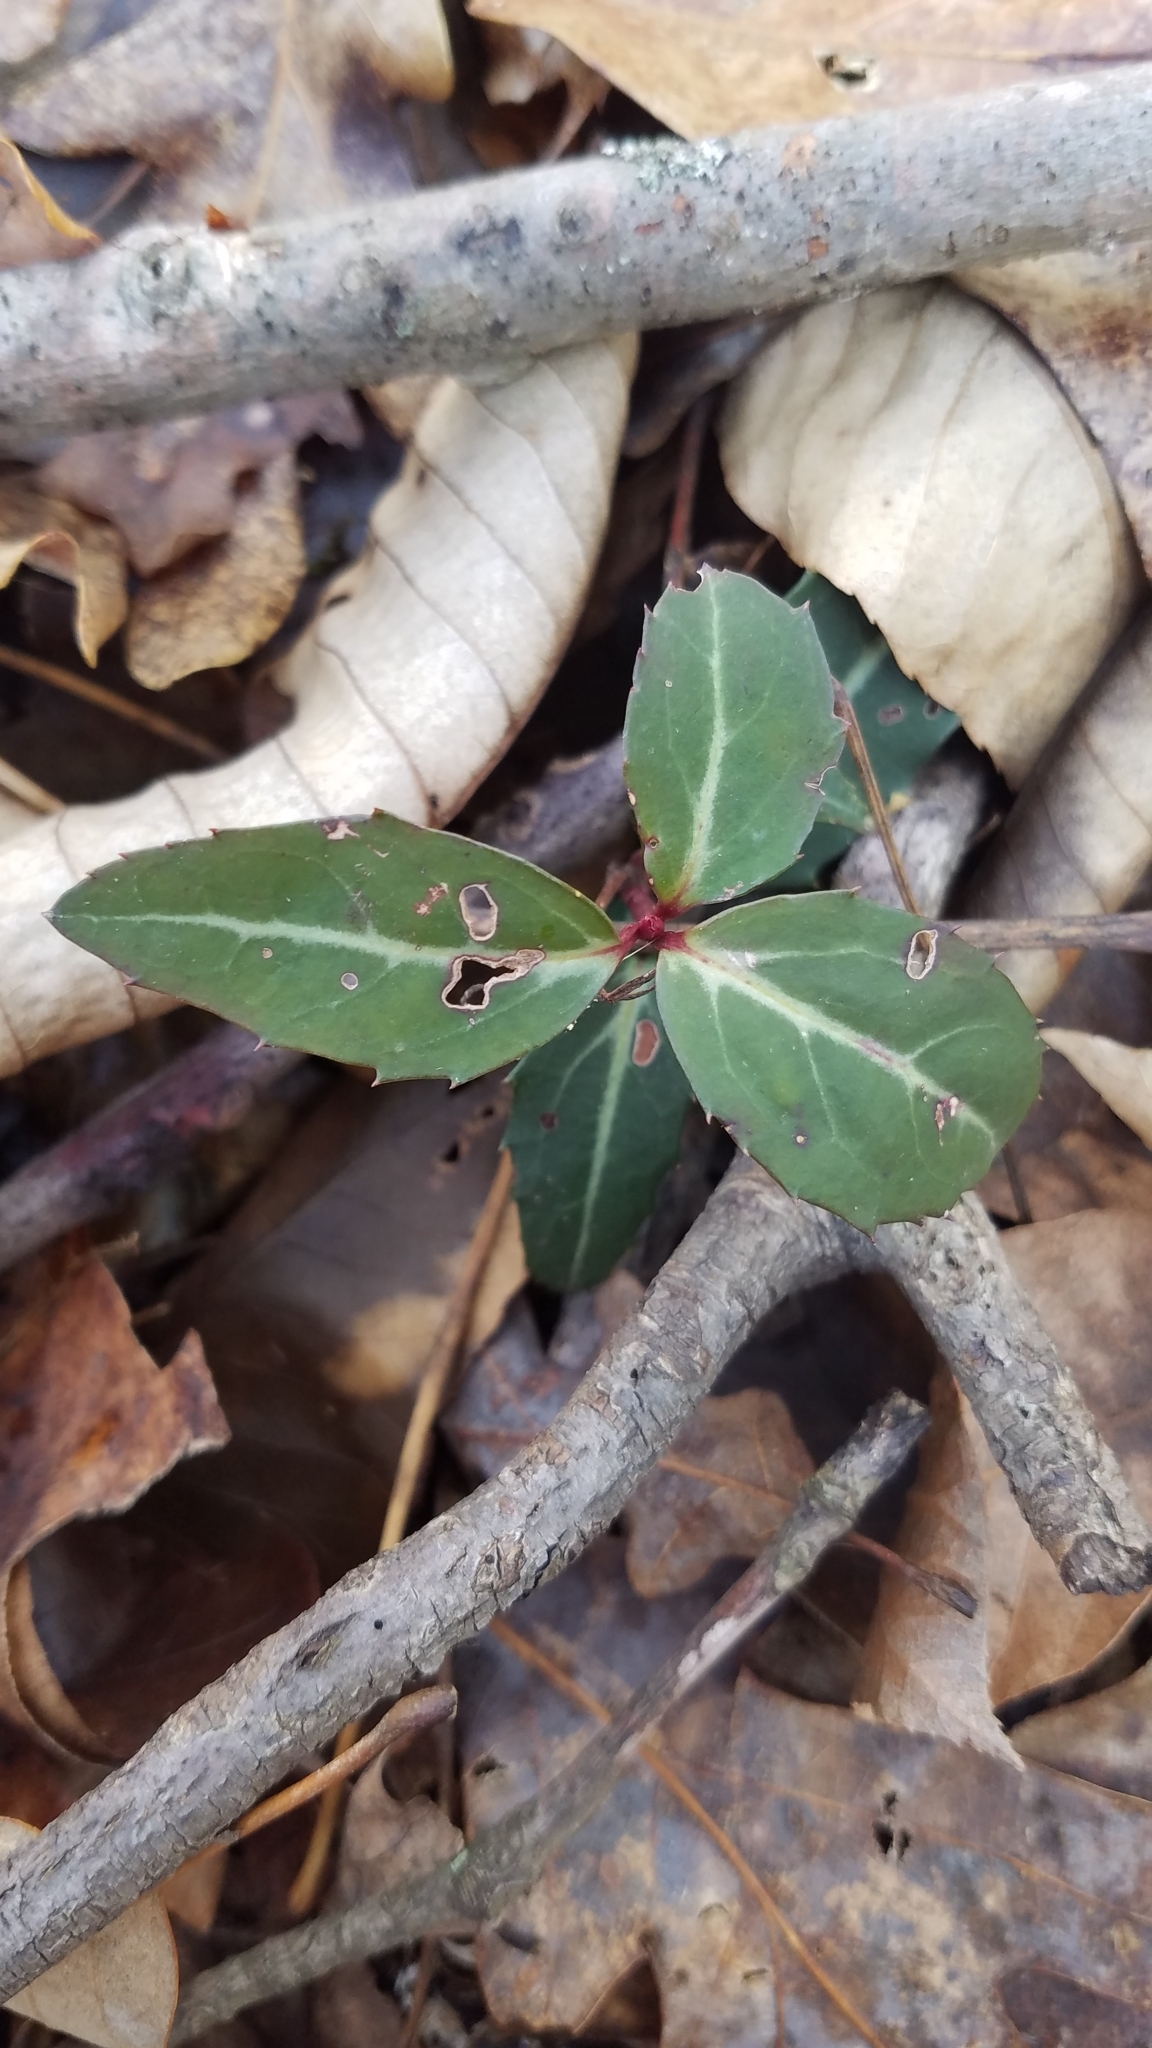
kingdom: Plantae
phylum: Tracheophyta
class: Magnoliopsida
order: Ericales
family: Ericaceae
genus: Chimaphila
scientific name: Chimaphila maculata
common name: Spotted pipsissewa
